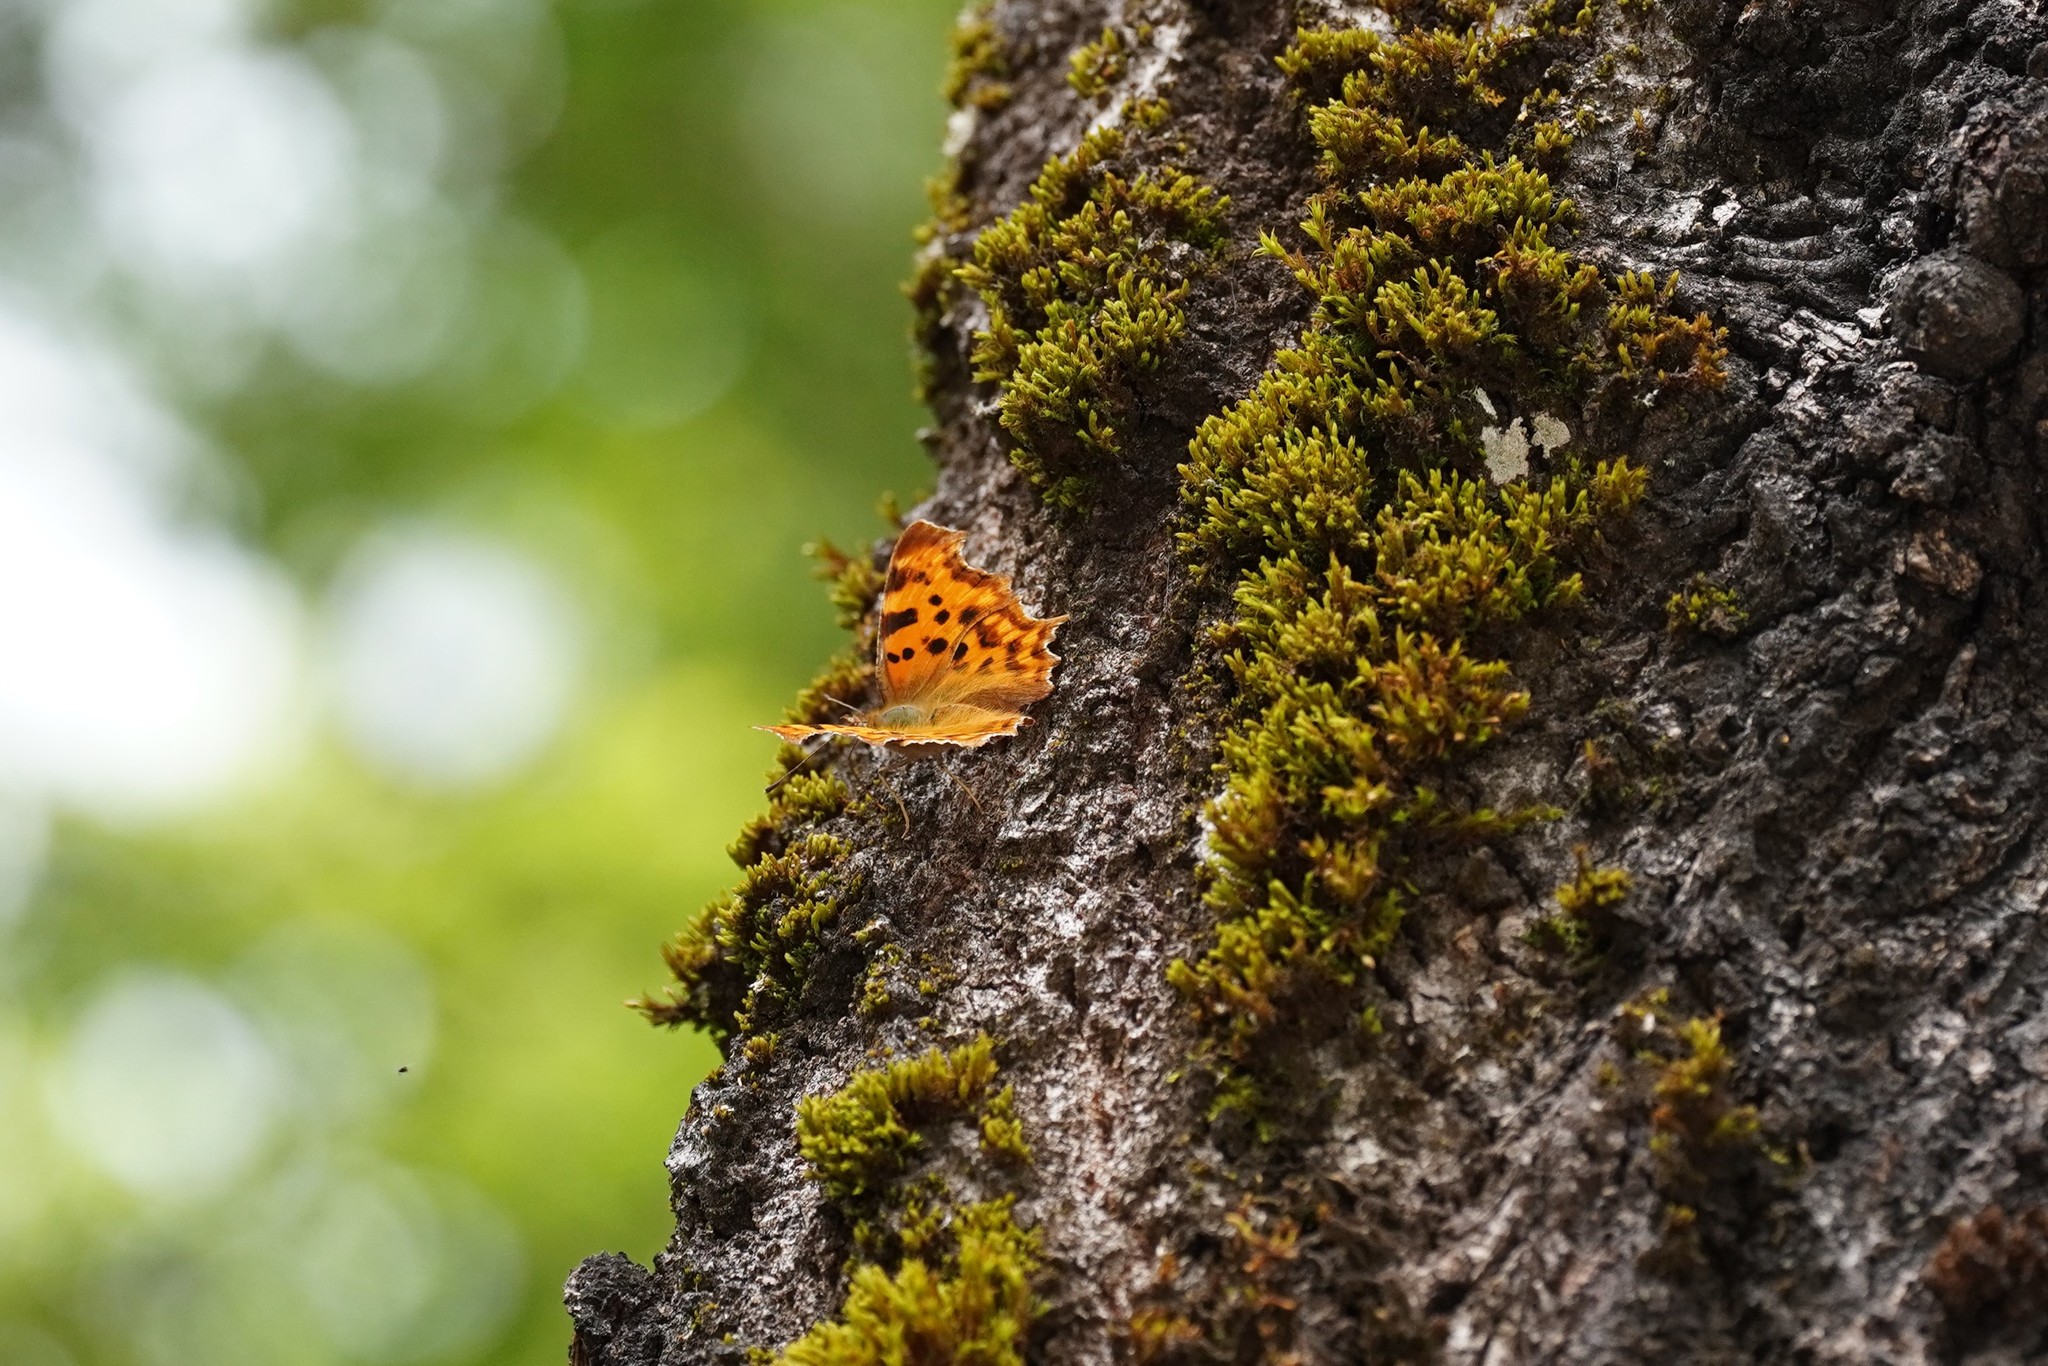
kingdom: Animalia
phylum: Arthropoda
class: Insecta
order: Lepidoptera
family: Nymphalidae
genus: Polygonia
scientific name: Polygonia c-album
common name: Comma
